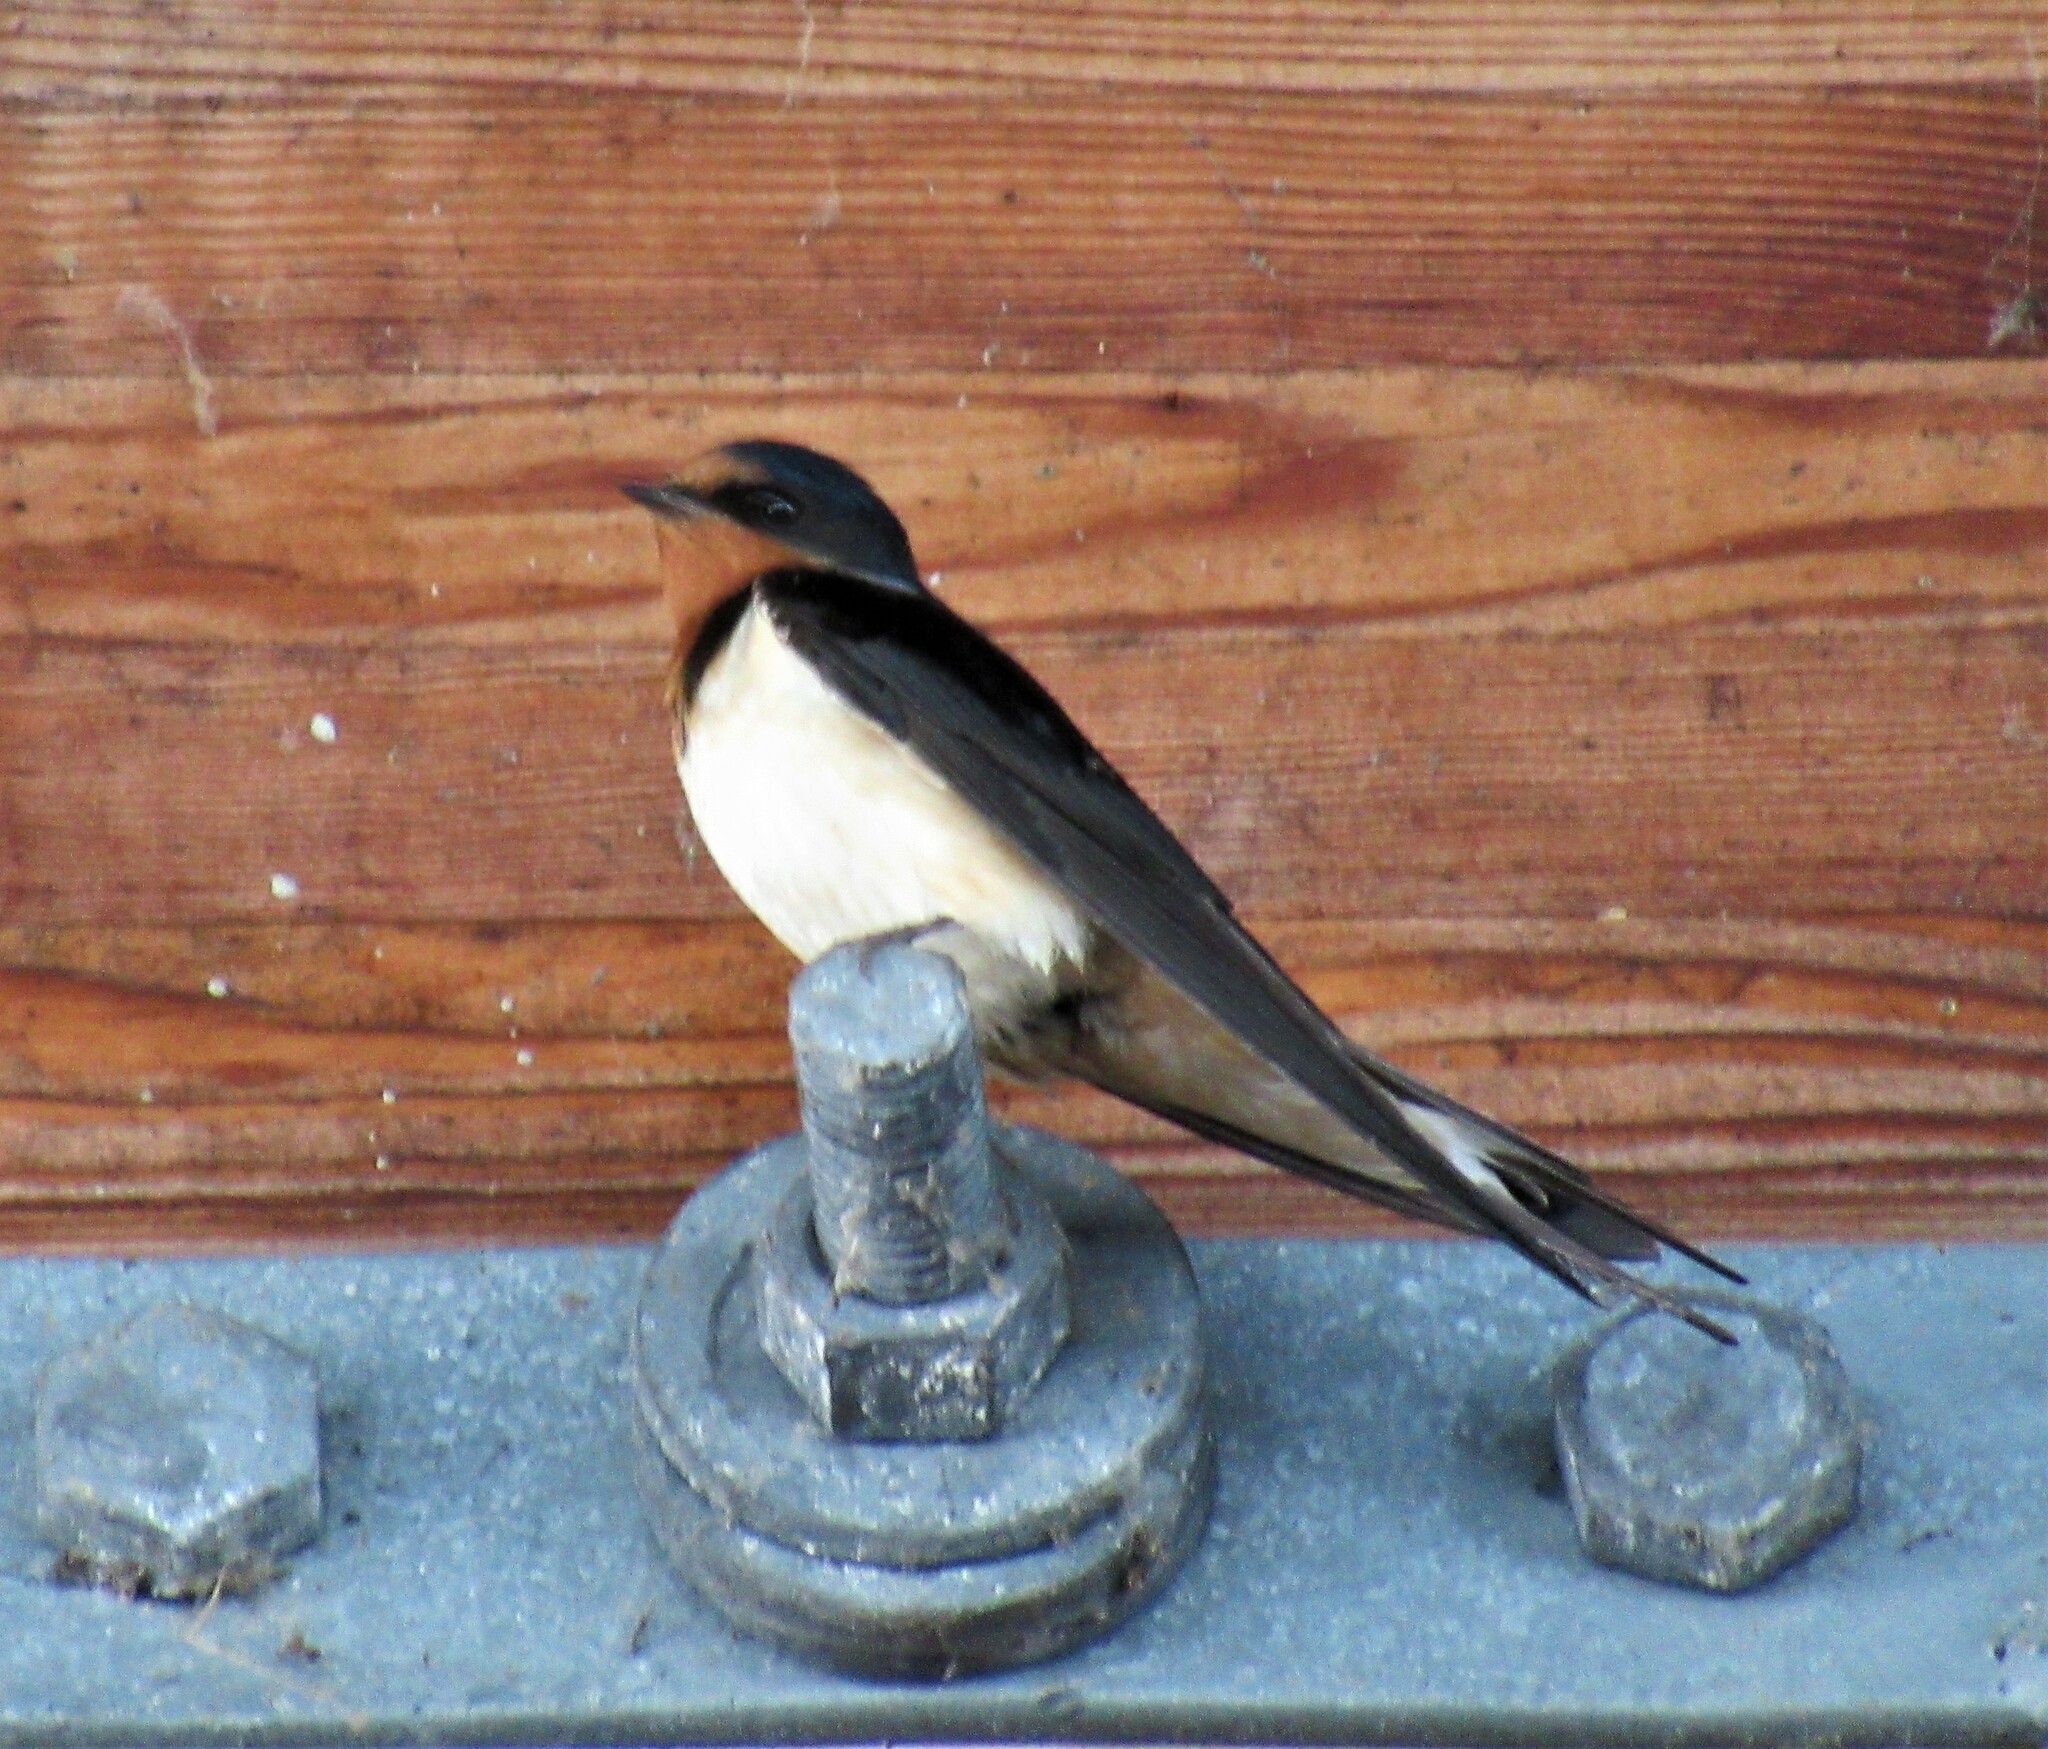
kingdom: Animalia
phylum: Chordata
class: Aves
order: Passeriformes
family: Hirundinidae
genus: Hirundo
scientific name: Hirundo rustica
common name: Barn swallow
